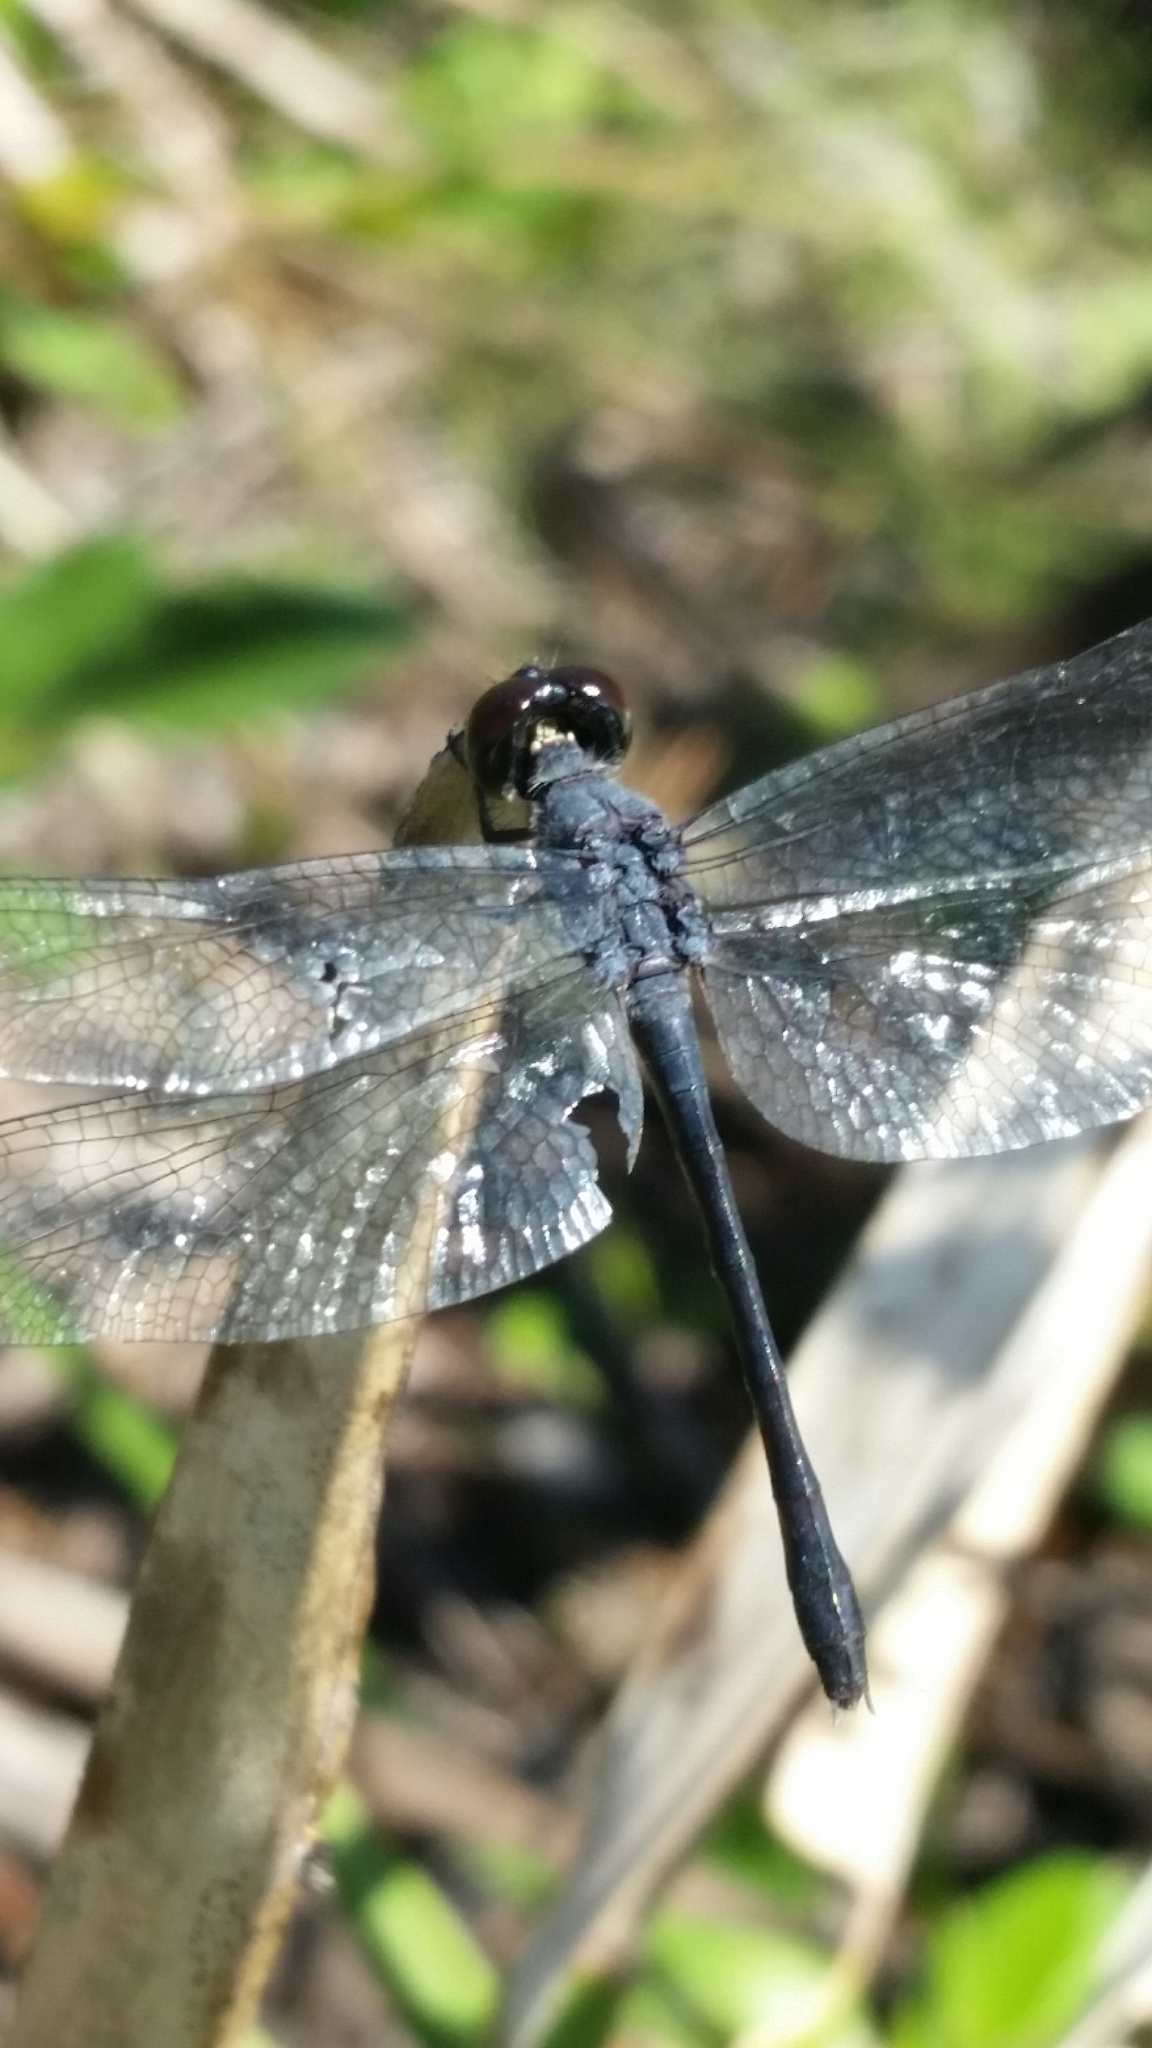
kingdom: Animalia
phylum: Arthropoda
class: Insecta
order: Odonata
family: Libellulidae
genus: Erythrodiplax
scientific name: Erythrodiplax berenice
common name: Seaside dragonlet
